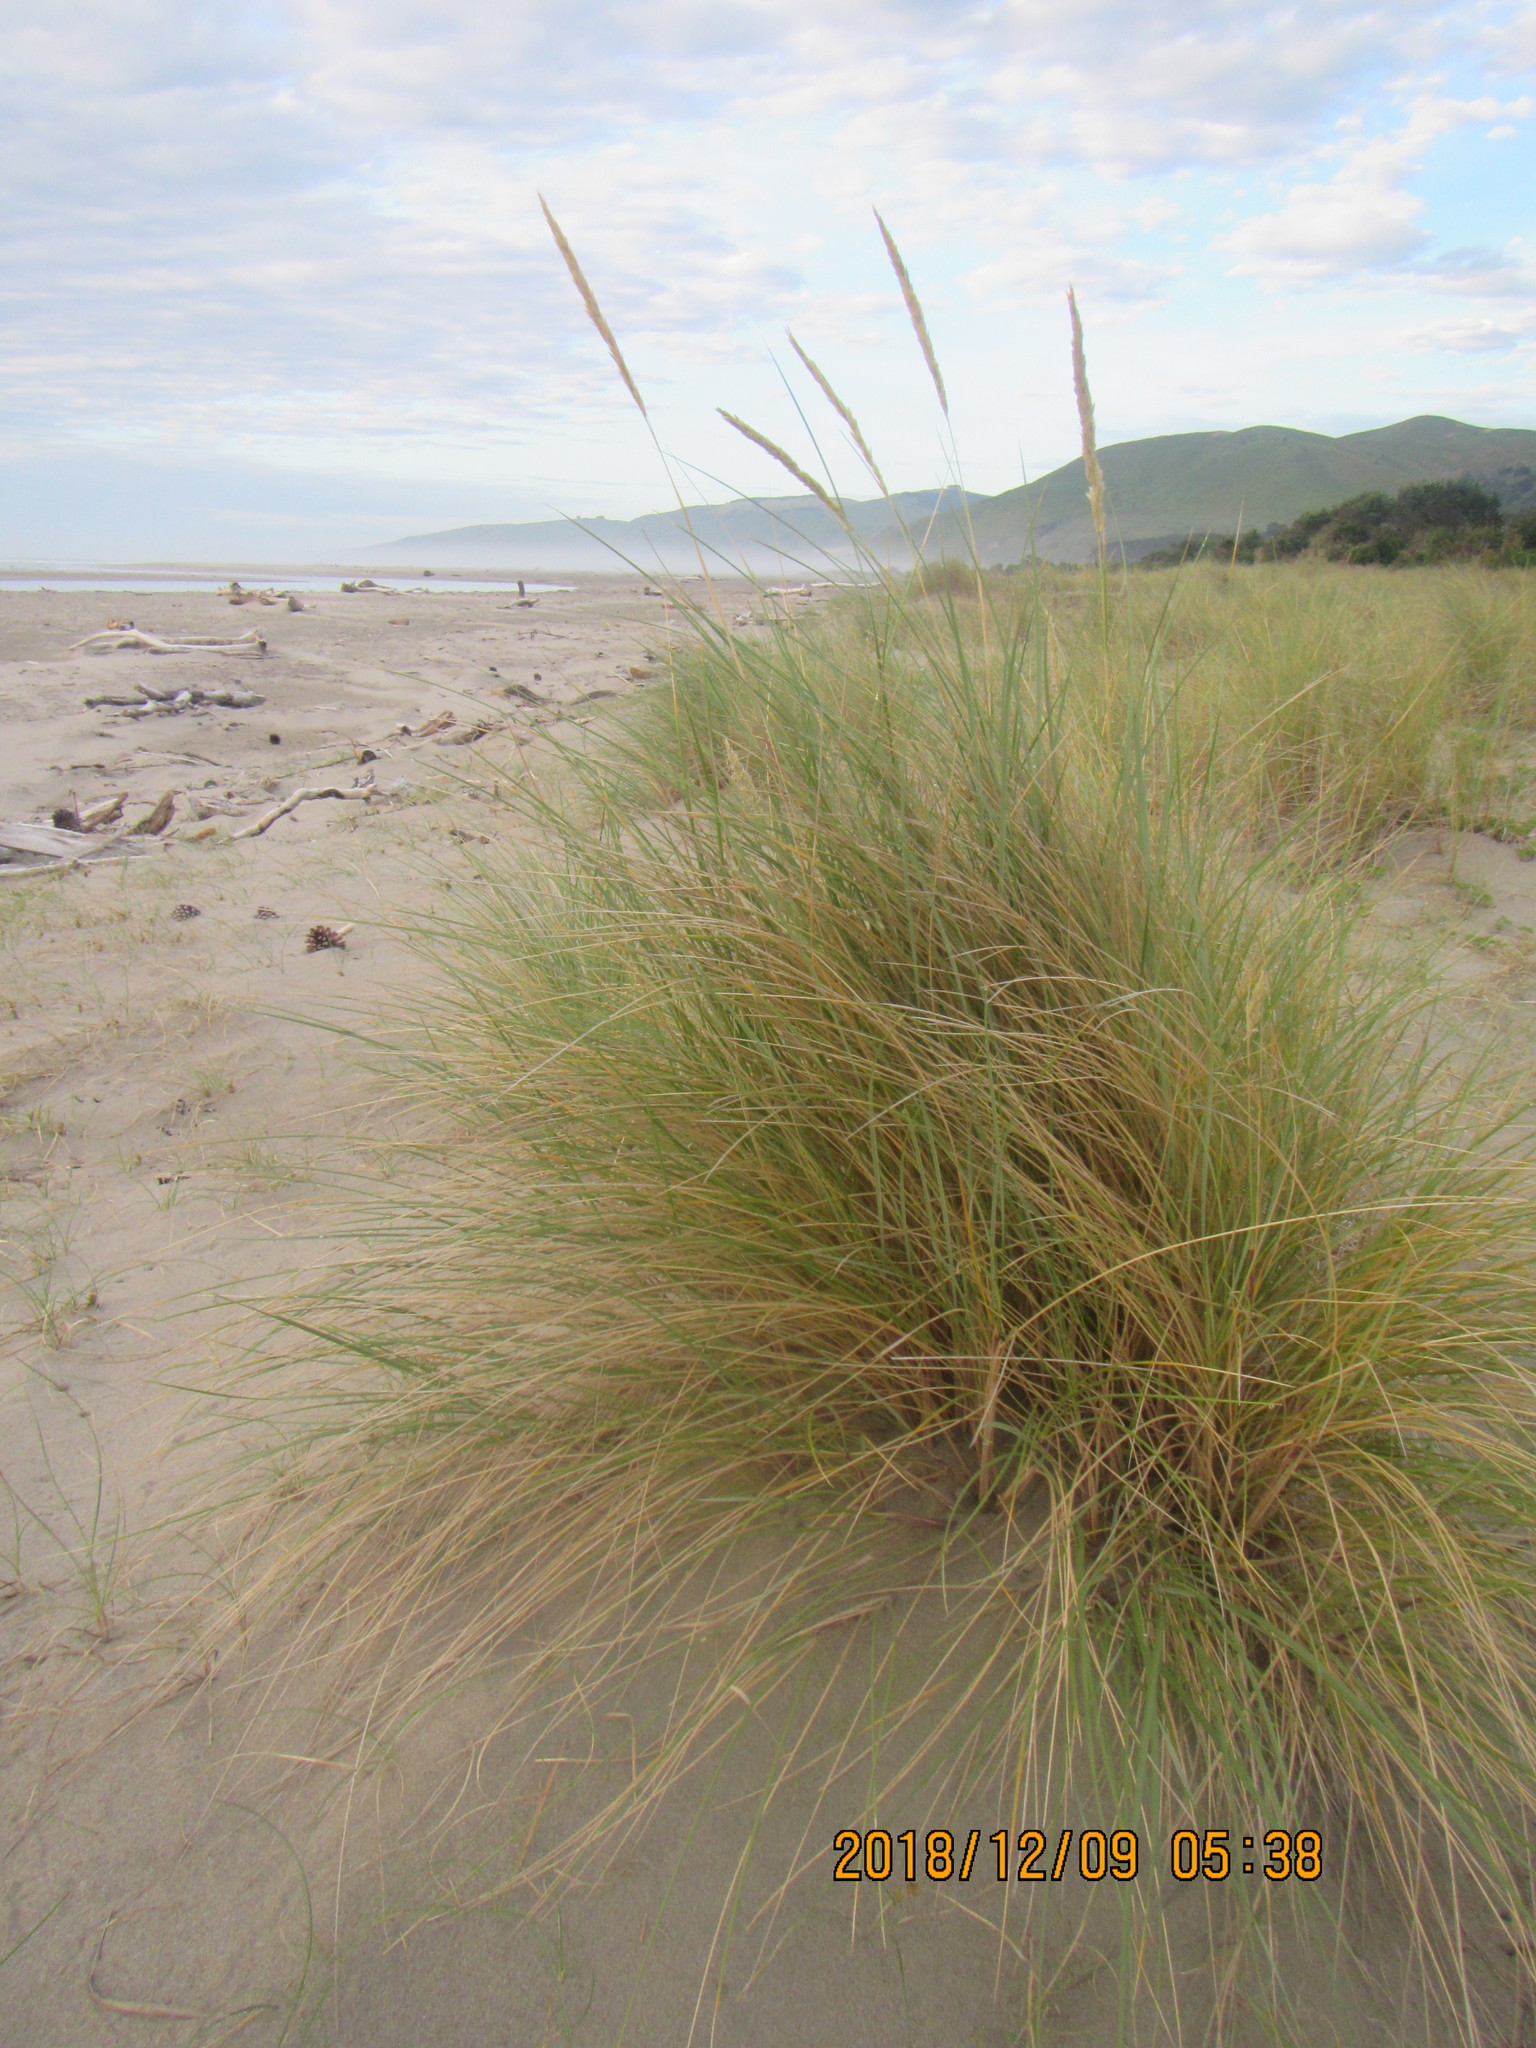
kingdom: Plantae
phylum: Tracheophyta
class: Liliopsida
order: Poales
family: Poaceae
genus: Calamagrostis
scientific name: Calamagrostis arenaria
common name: European beachgrass
